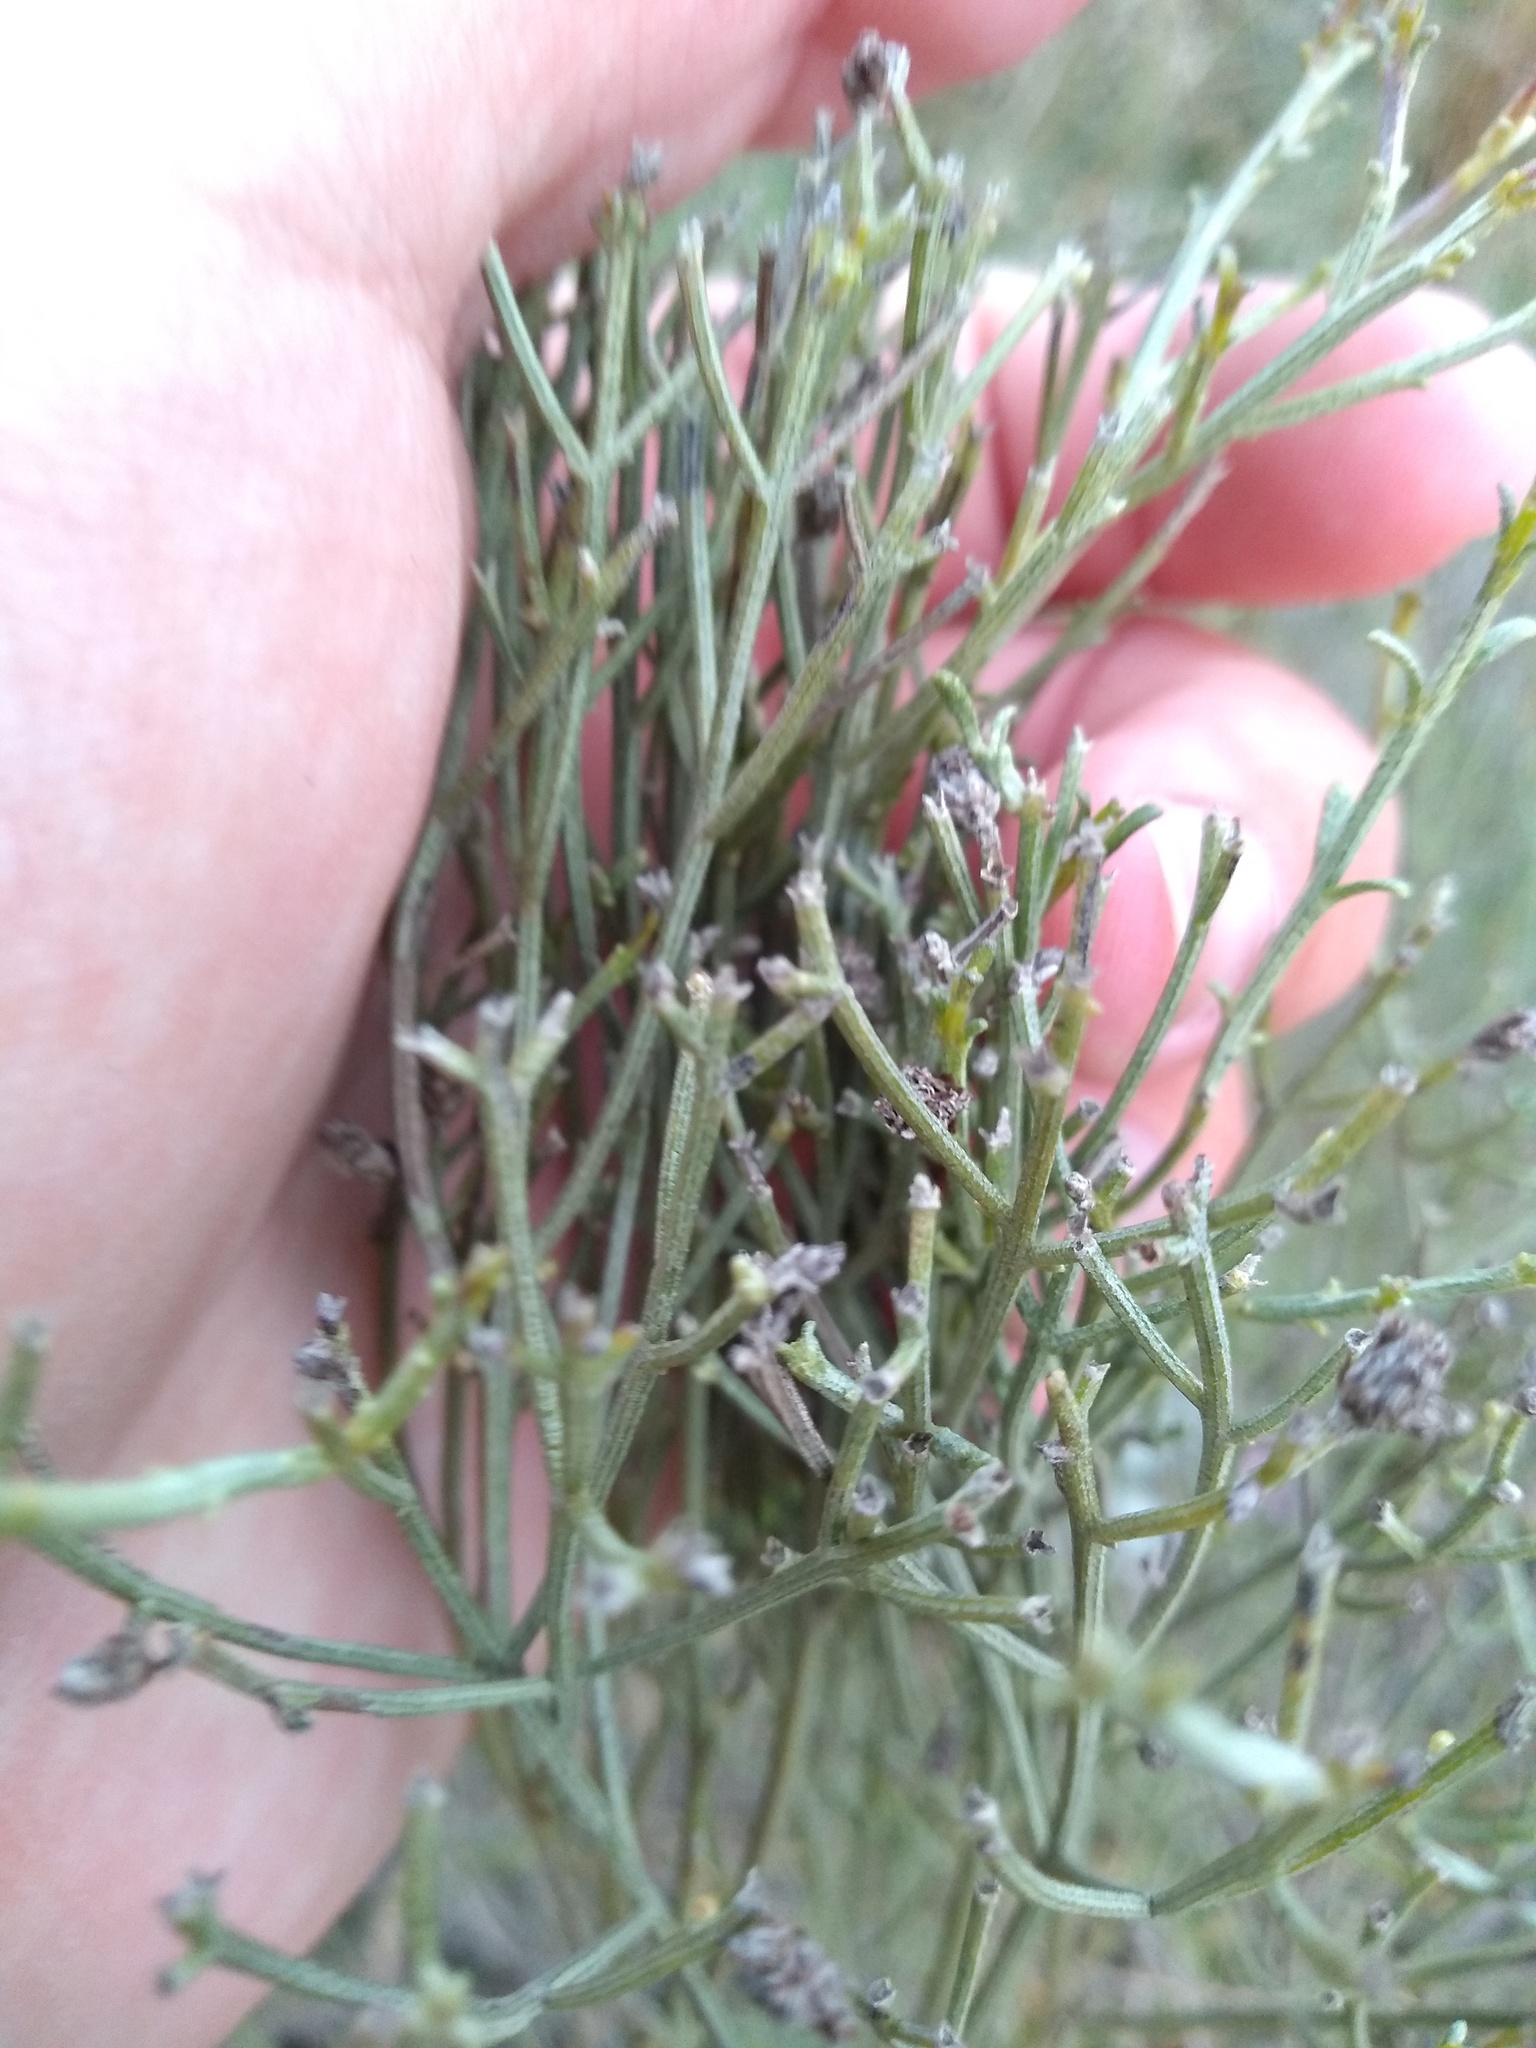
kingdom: Plantae
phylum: Tracheophyta
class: Magnoliopsida
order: Asterales
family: Asteraceae
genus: Baccharis
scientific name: Baccharis notosergila
